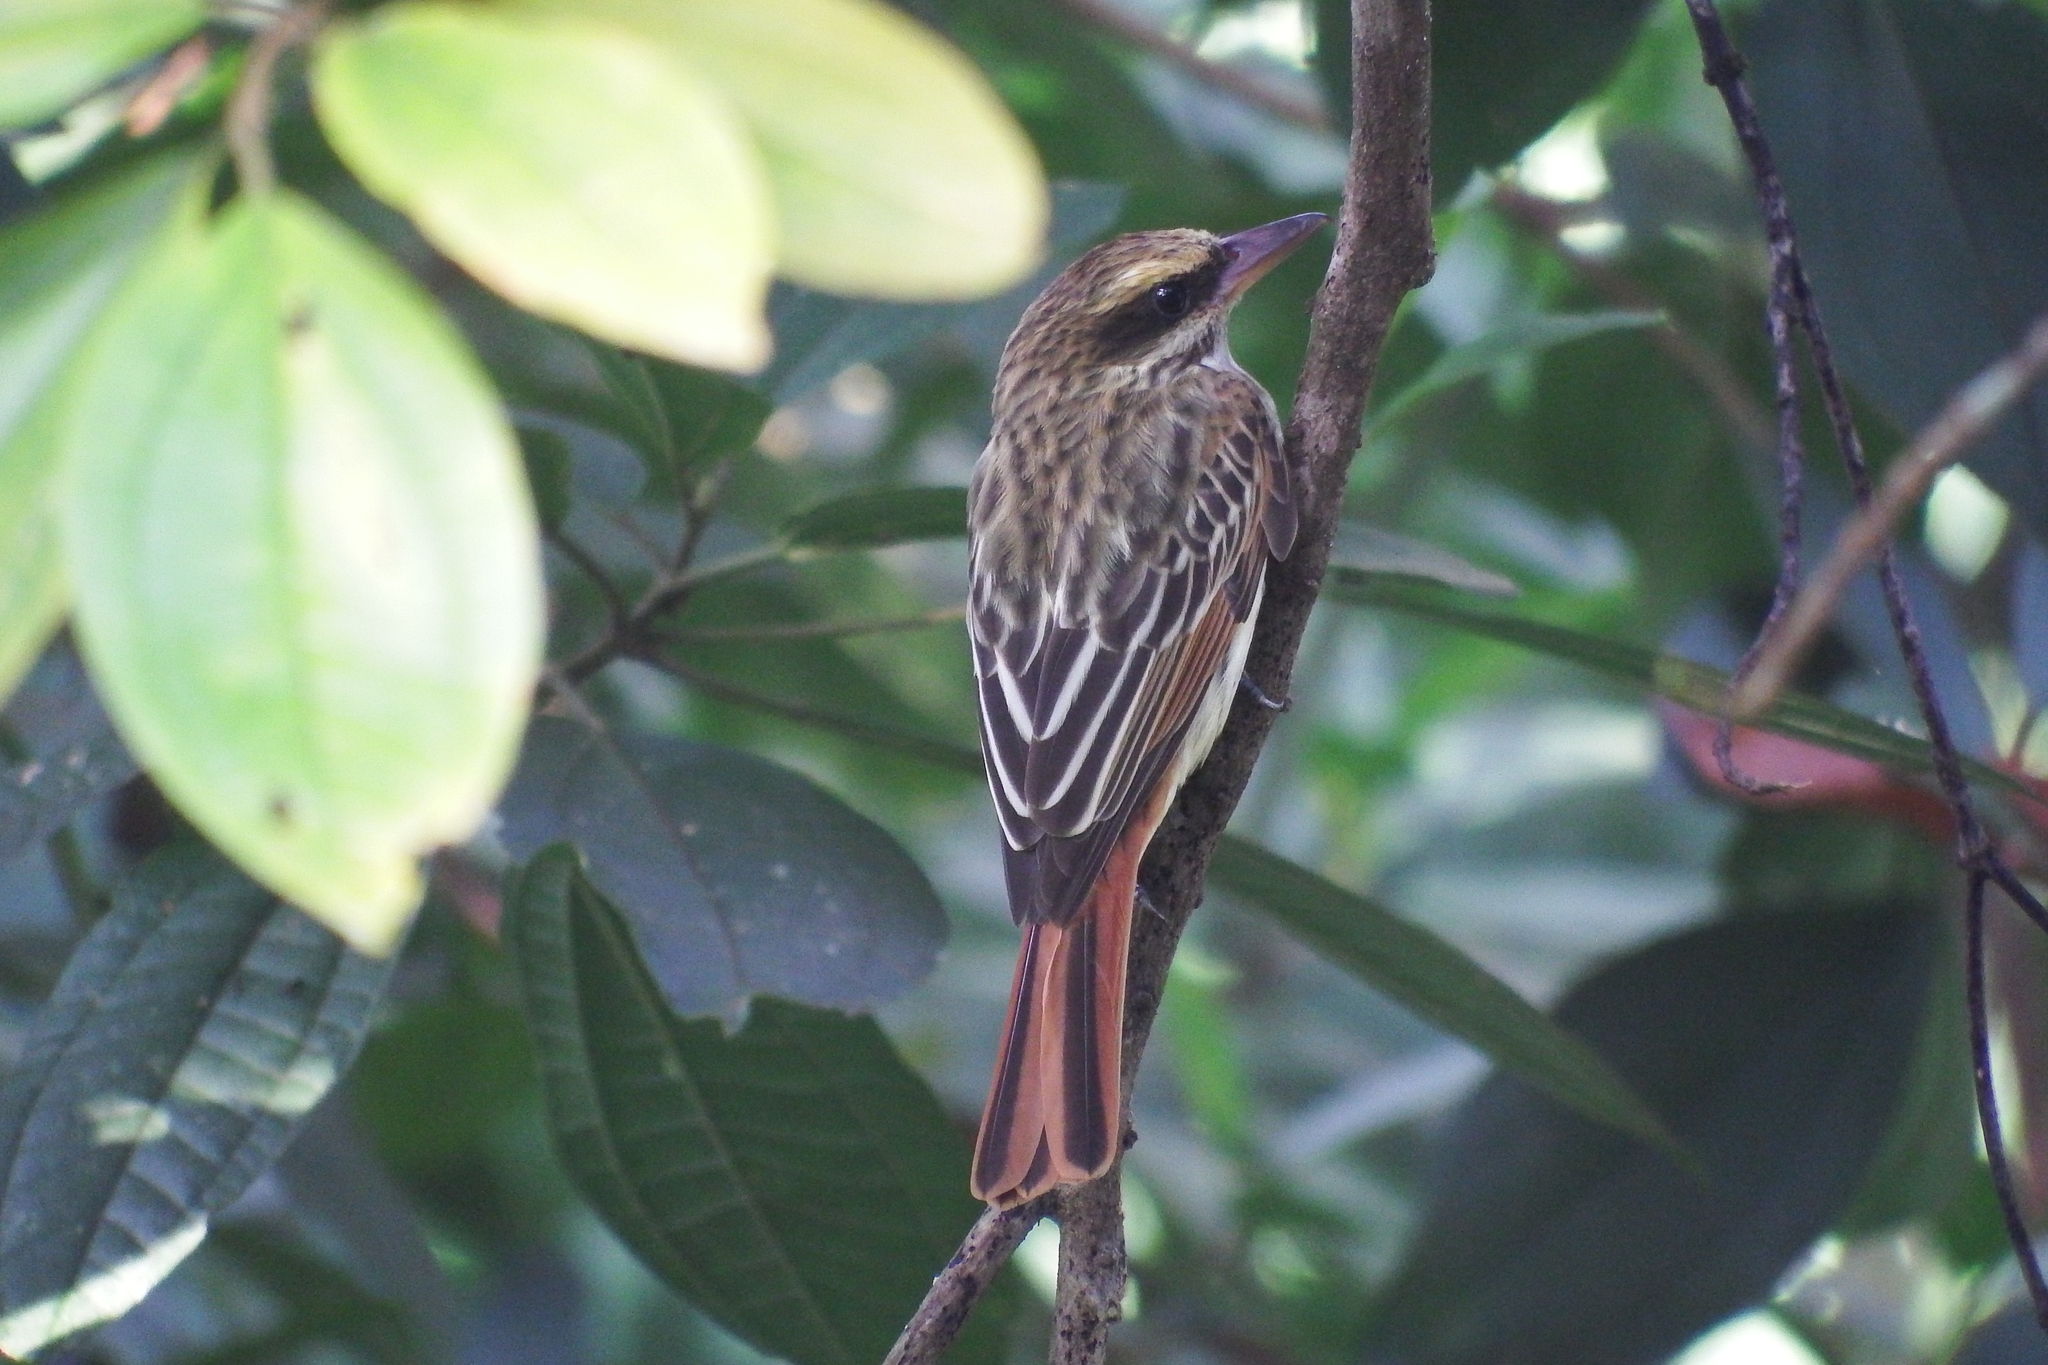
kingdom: Animalia
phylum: Chordata
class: Aves
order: Passeriformes
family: Tyrannidae
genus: Myiodynastes
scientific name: Myiodynastes maculatus
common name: Streaked flycatcher
